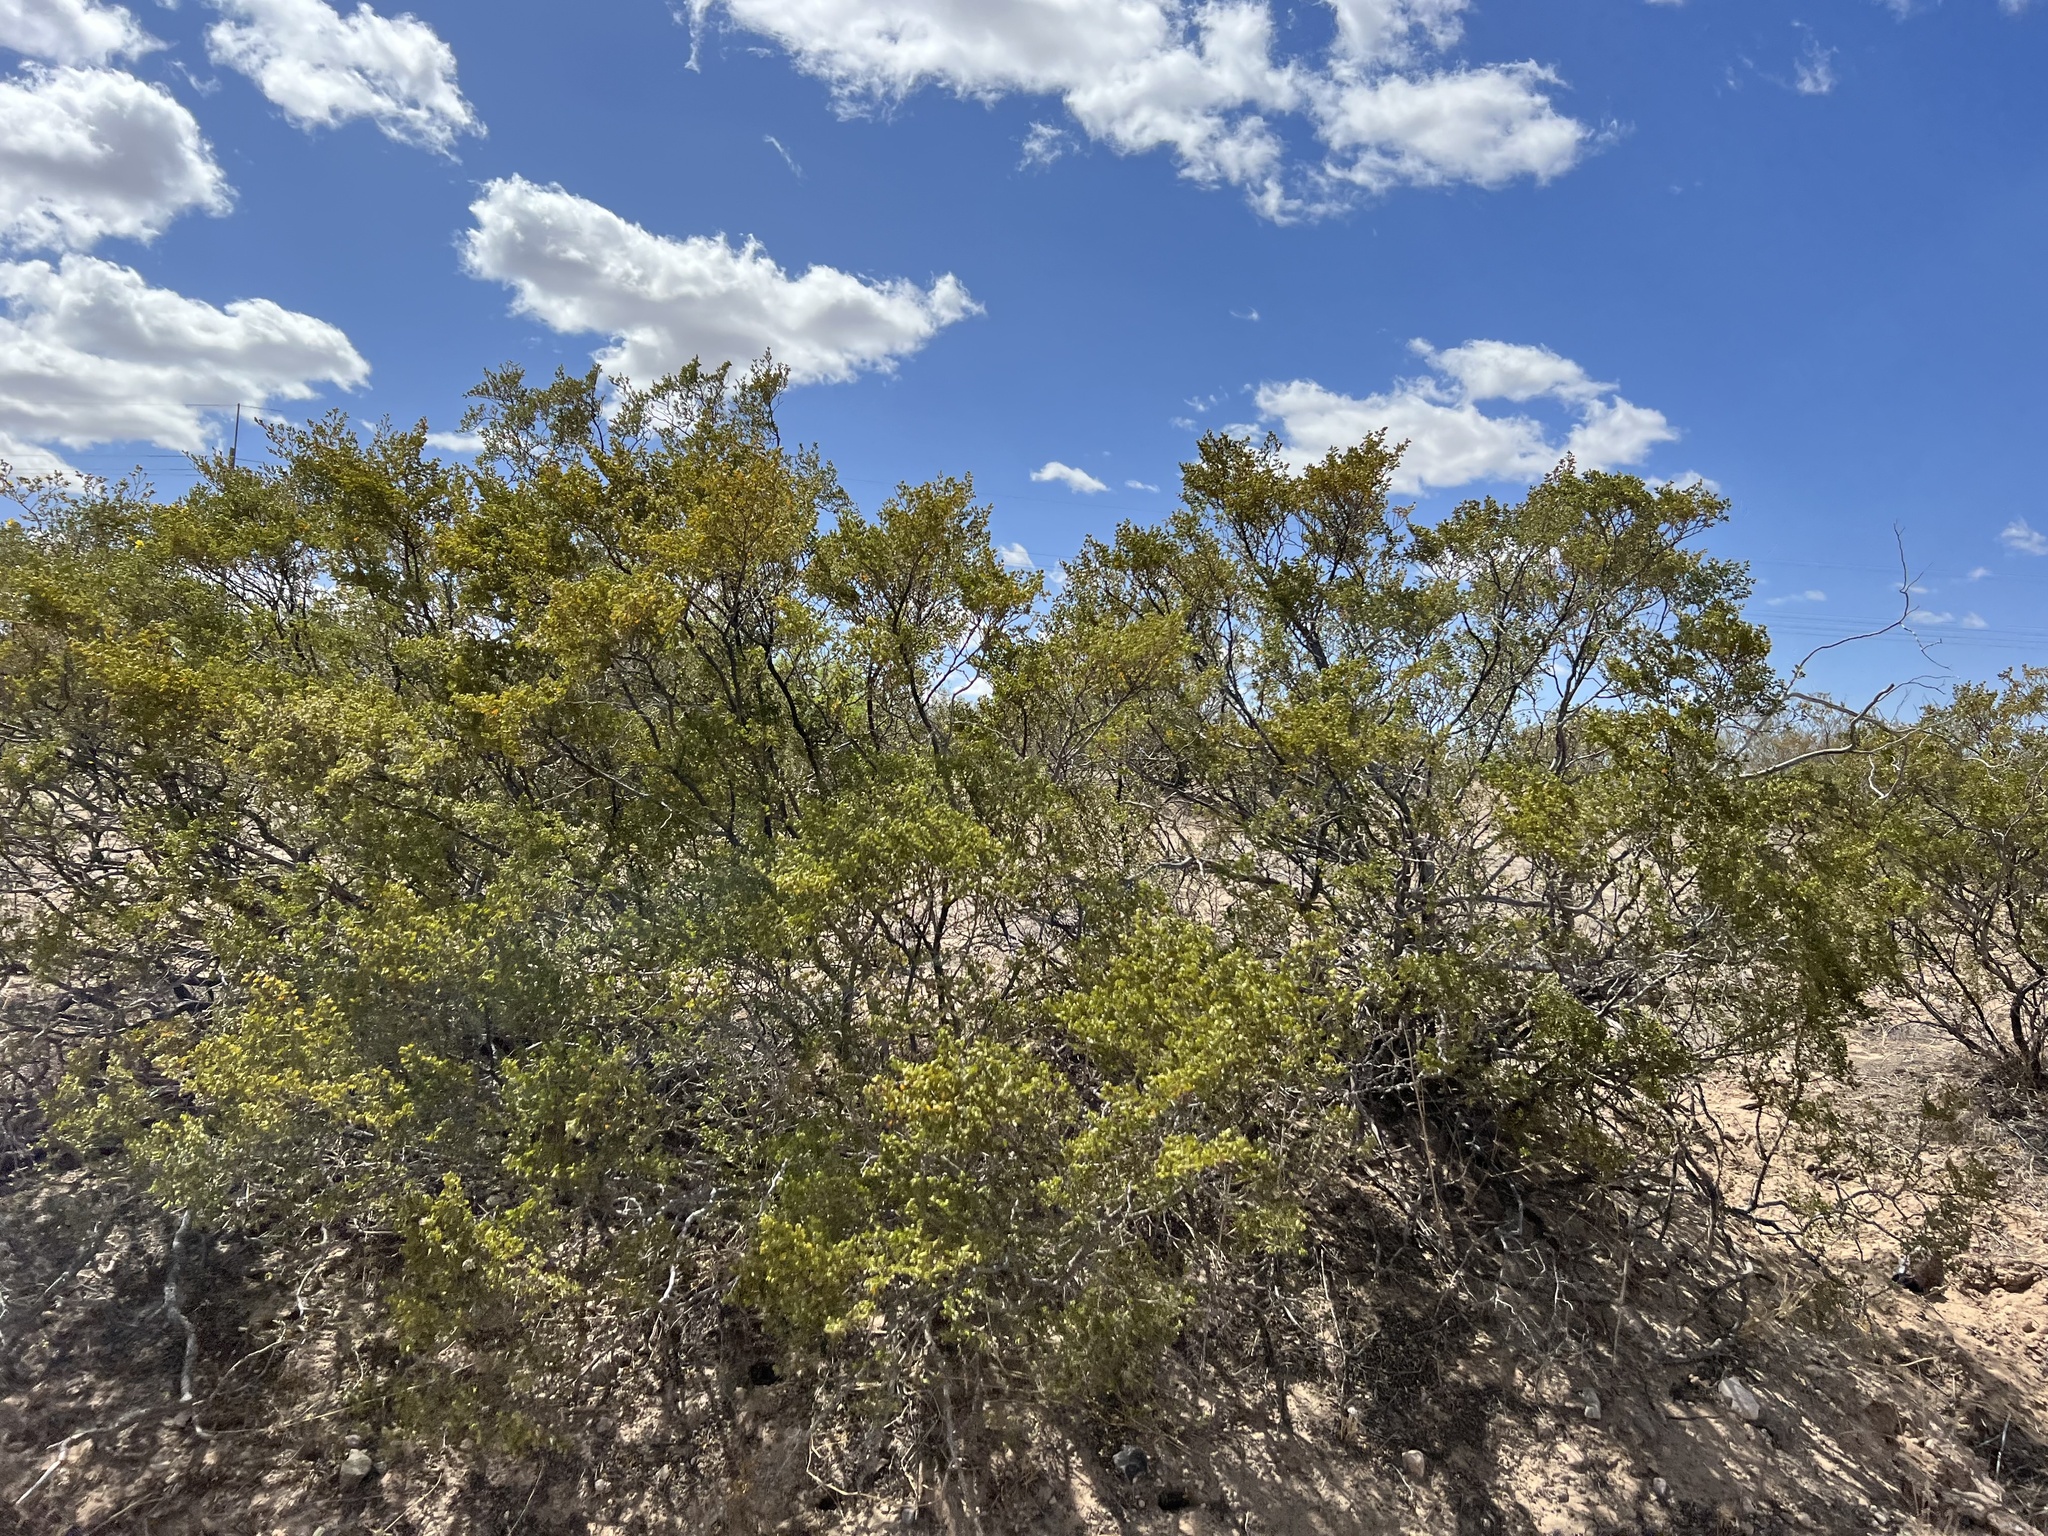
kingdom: Plantae
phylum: Tracheophyta
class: Magnoliopsida
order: Zygophyllales
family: Zygophyllaceae
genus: Larrea
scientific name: Larrea tridentata
